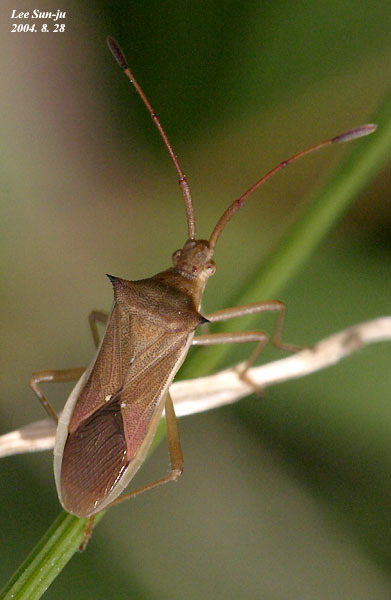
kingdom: Animalia
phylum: Arthropoda
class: Insecta
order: Hemiptera
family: Coreidae
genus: Cletus
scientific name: Cletus punctiger
